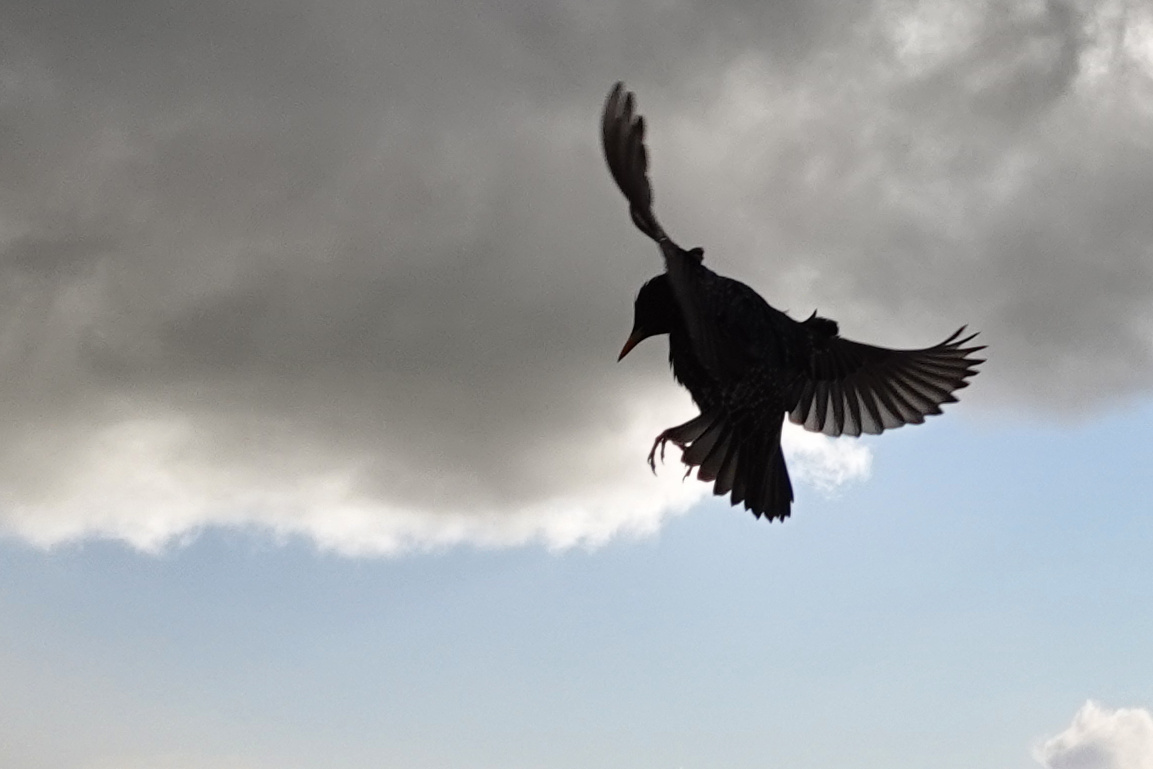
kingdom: Animalia
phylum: Chordata
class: Aves
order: Passeriformes
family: Sturnidae
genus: Sturnus
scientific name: Sturnus vulgaris
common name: Common starling
